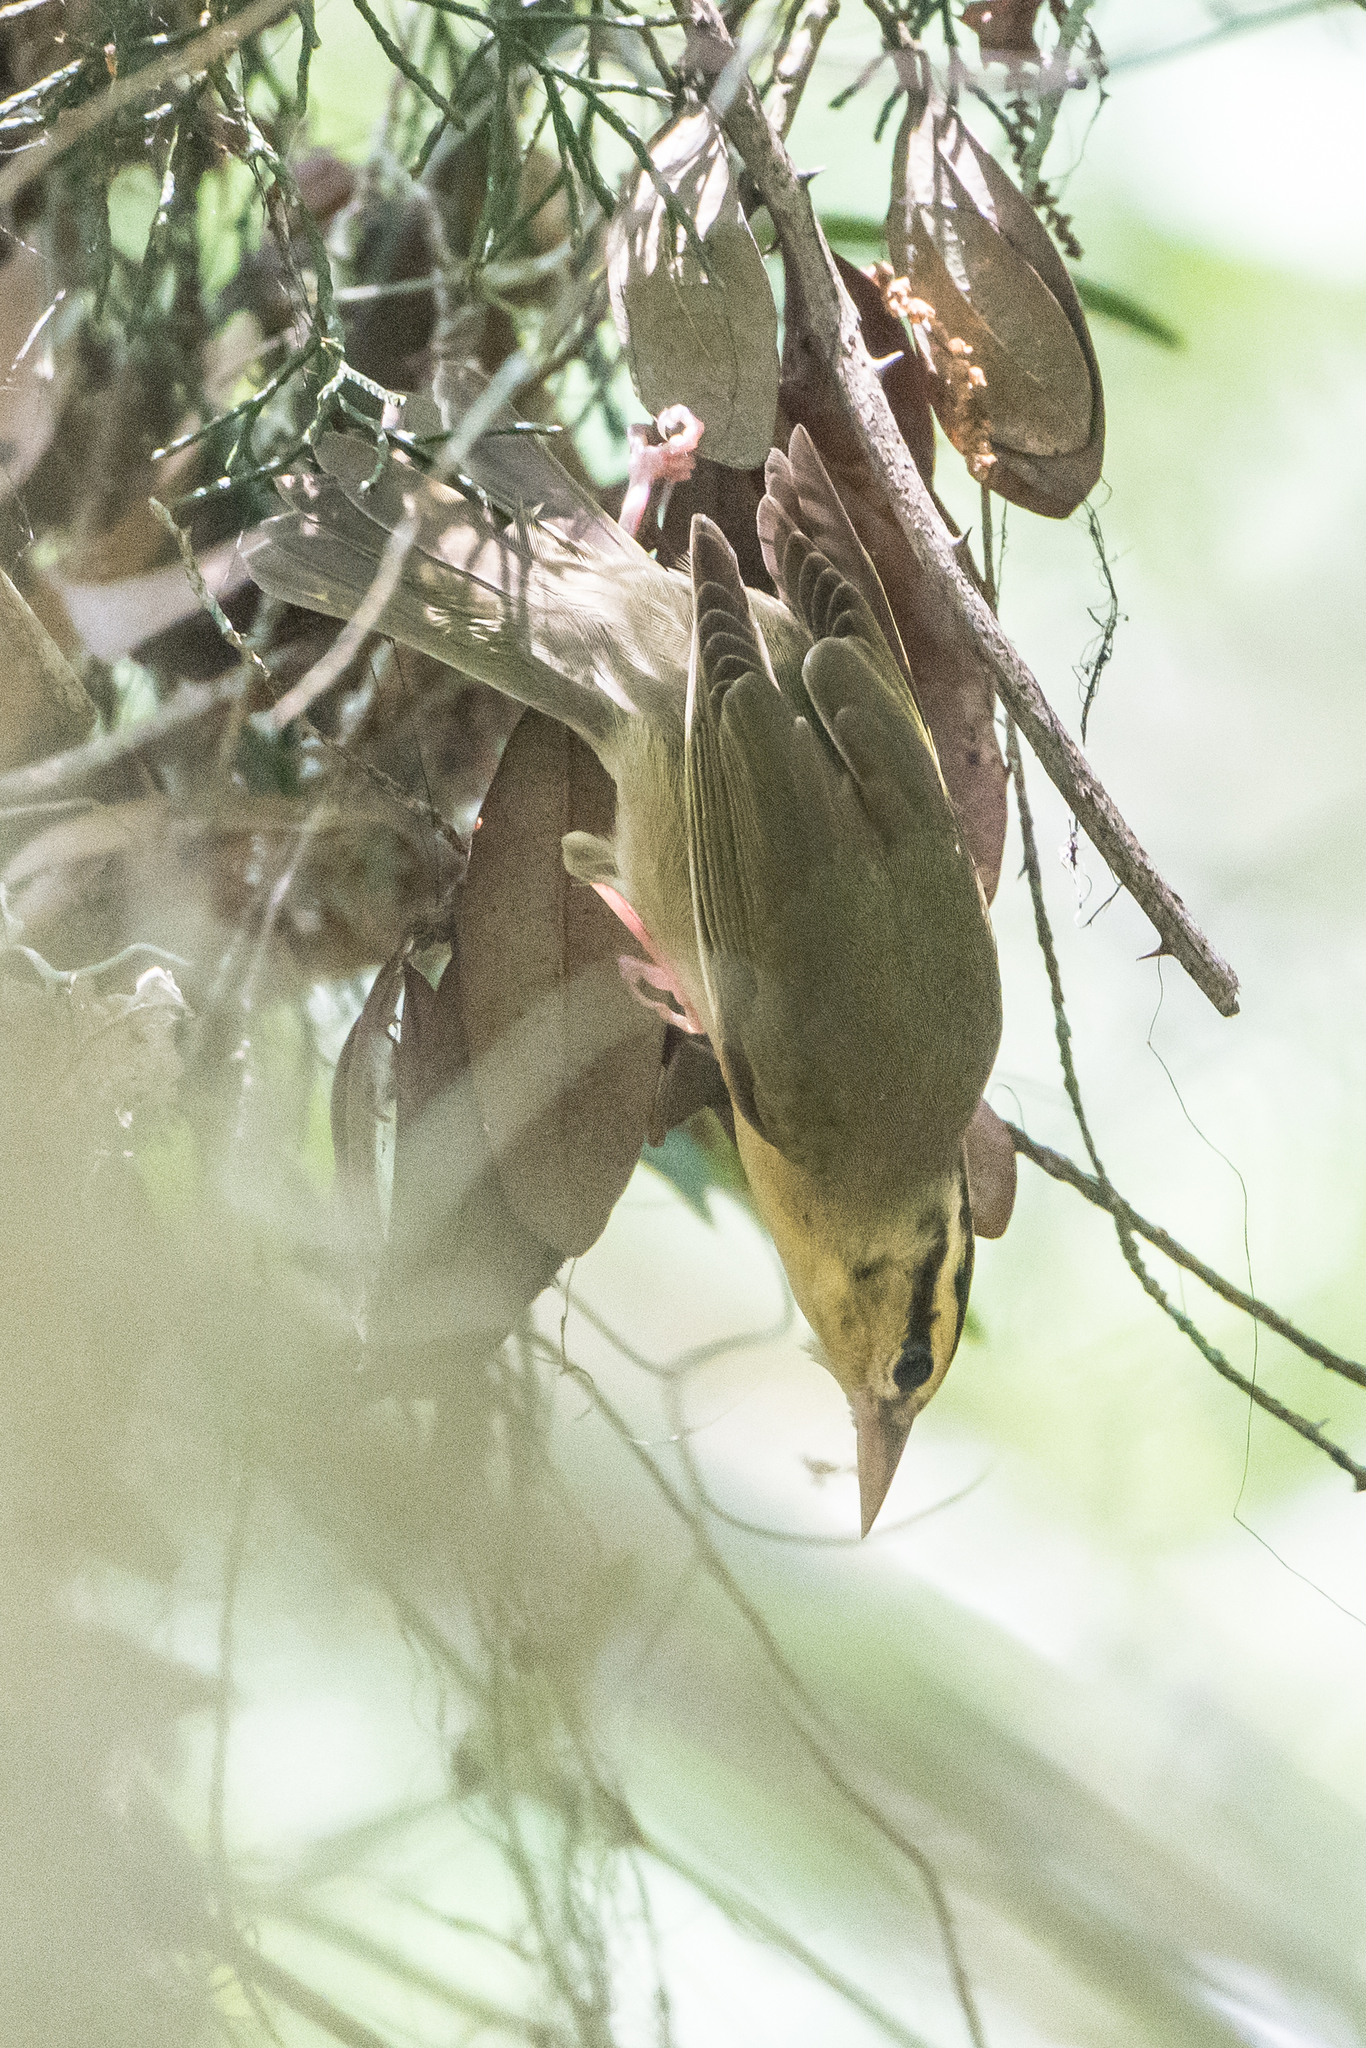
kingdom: Animalia
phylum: Chordata
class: Aves
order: Passeriformes
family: Parulidae
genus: Helmitheros
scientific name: Helmitheros vermivorum
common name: Worm-eating warbler
